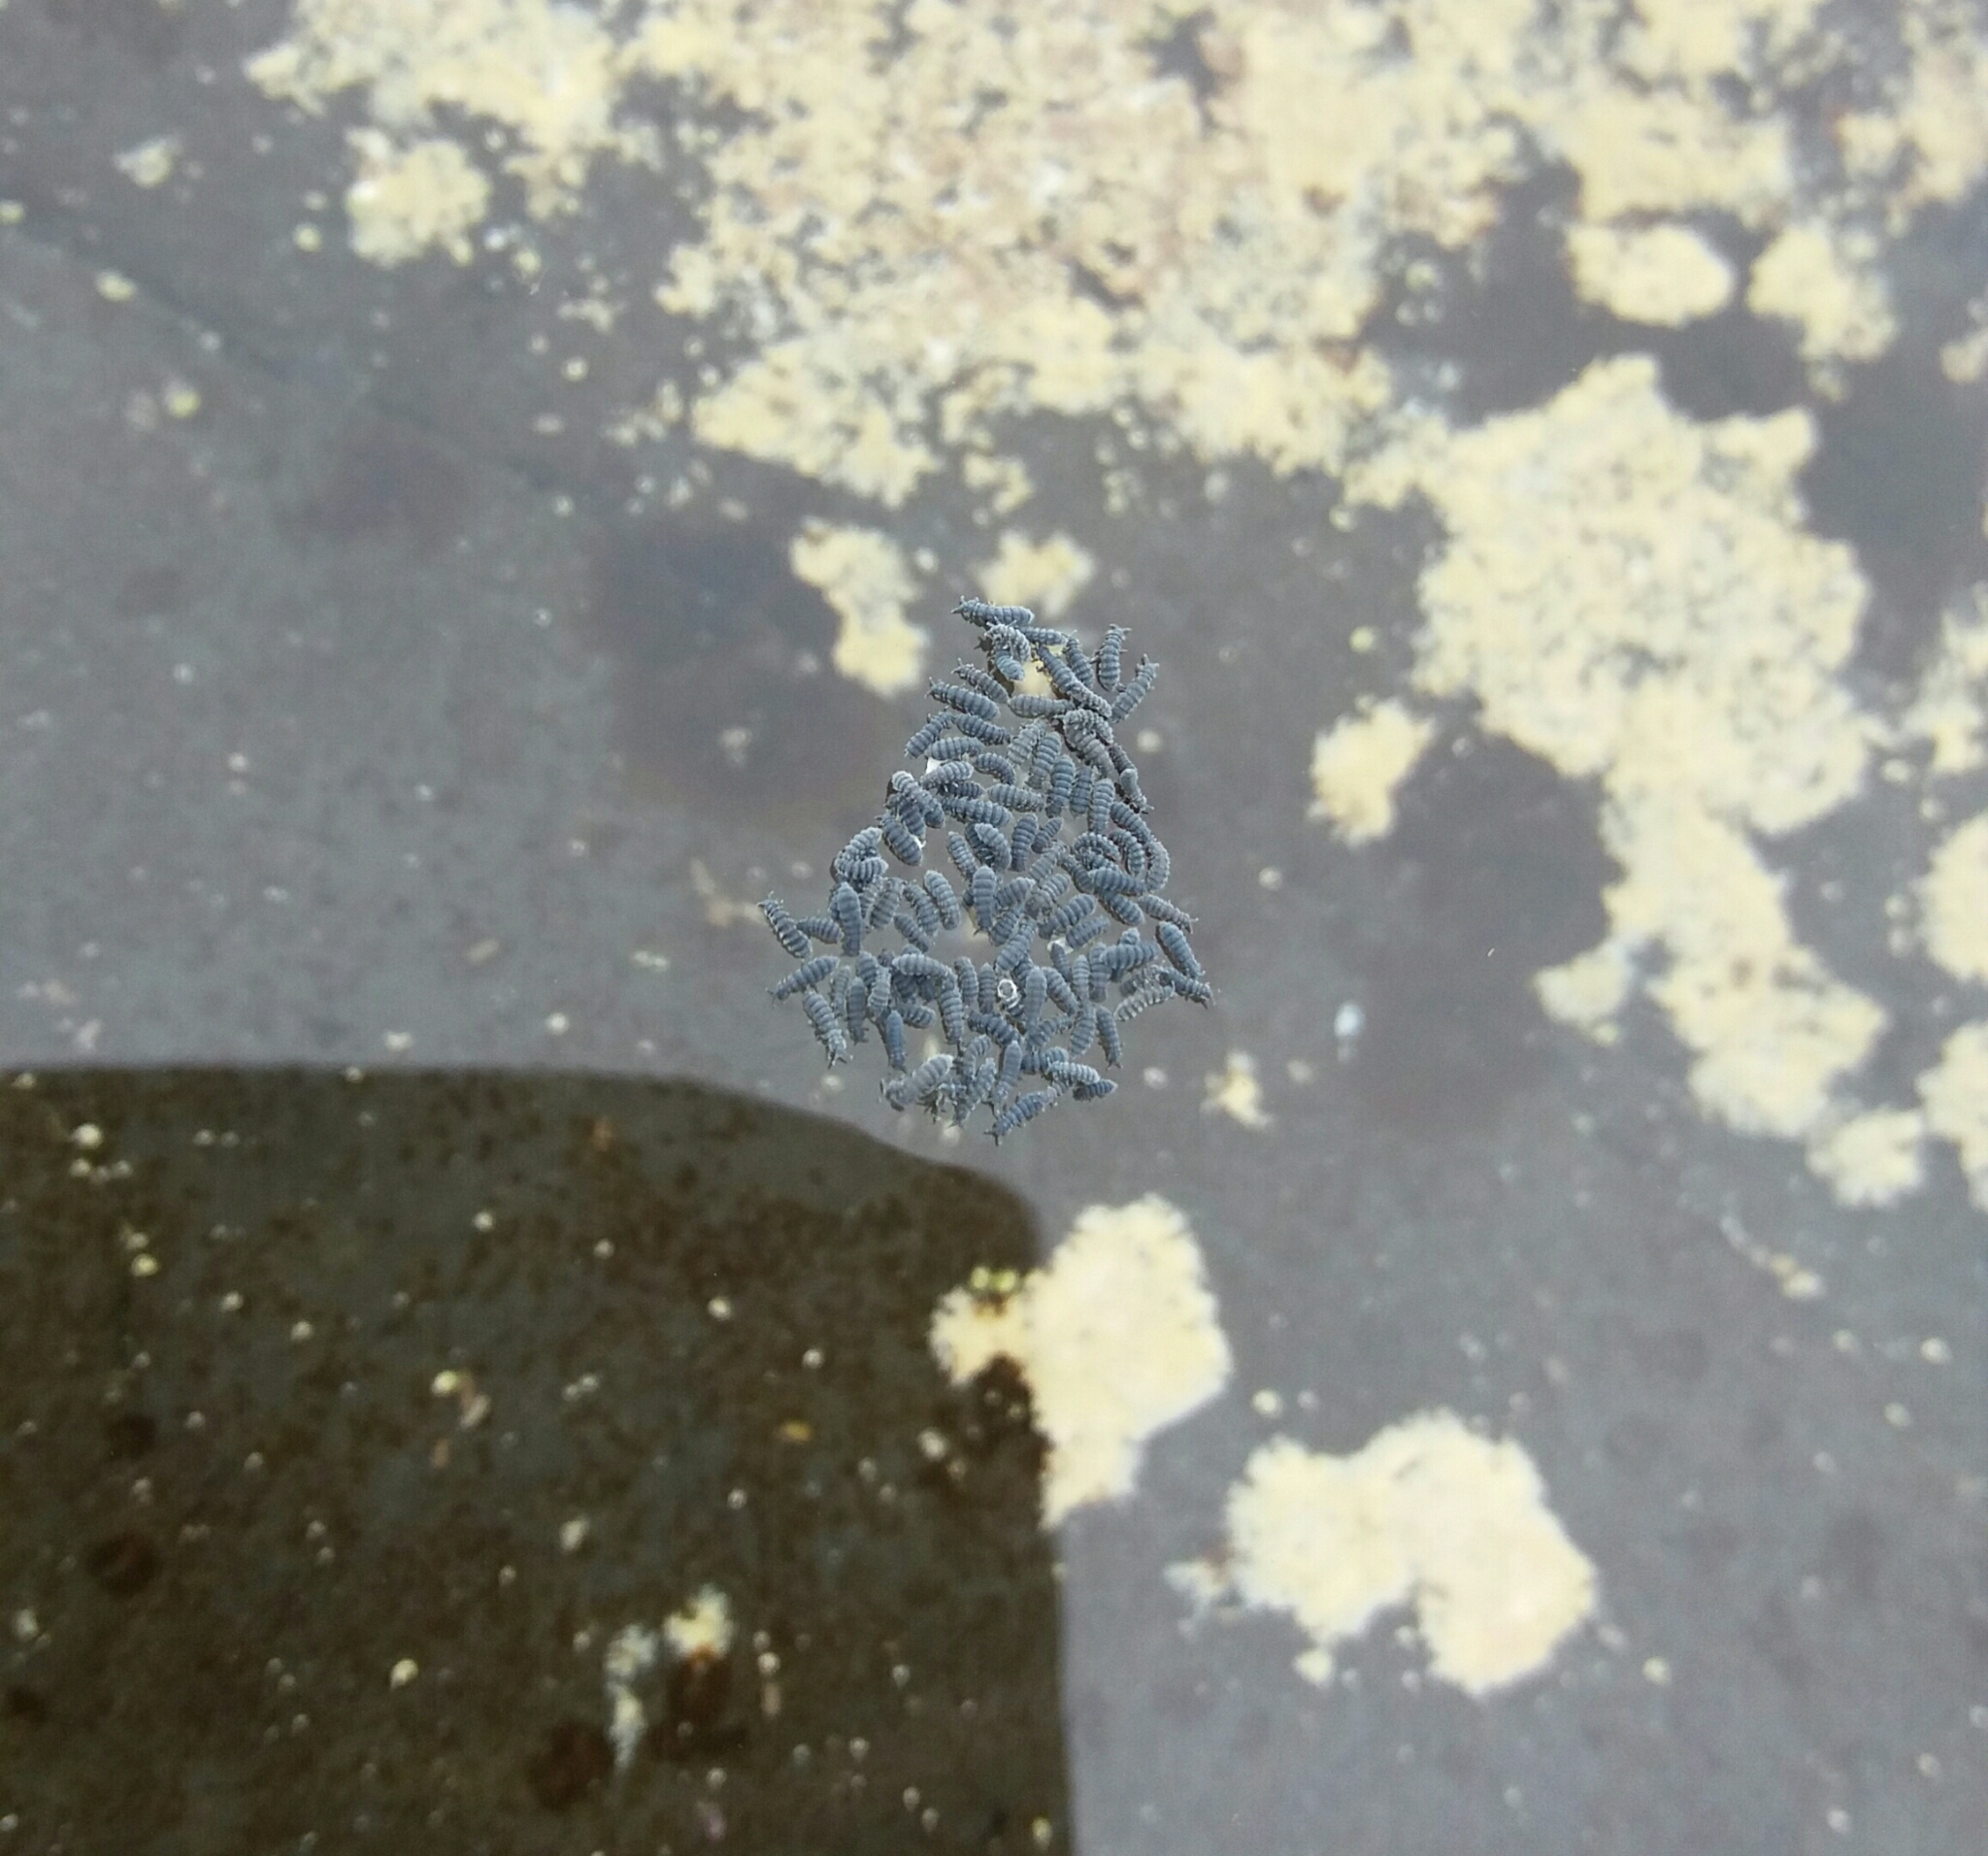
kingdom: Animalia
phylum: Arthropoda
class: Collembola
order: Poduromorpha
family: Neanuridae
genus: Anurida
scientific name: Anurida maritima
